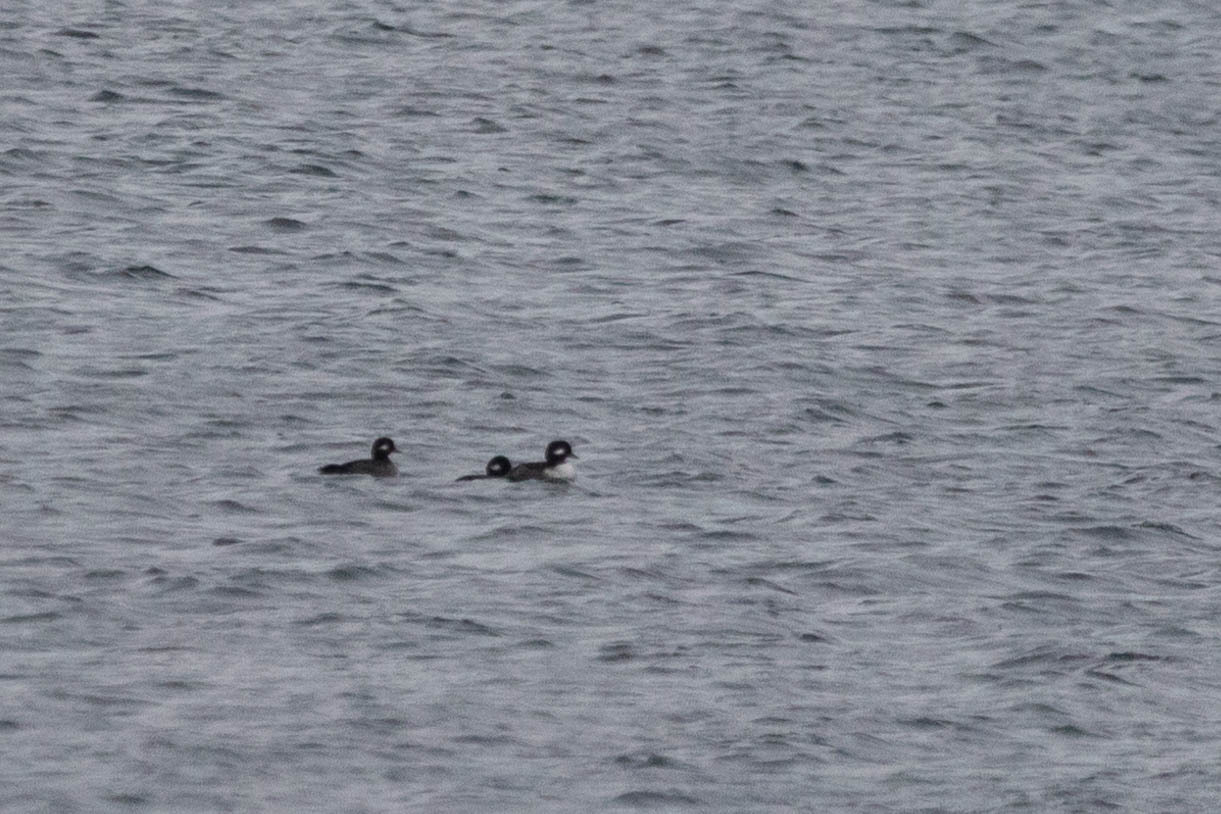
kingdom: Animalia
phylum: Chordata
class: Aves
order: Anseriformes
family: Anatidae
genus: Bucephala
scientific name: Bucephala albeola
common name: Bufflehead
